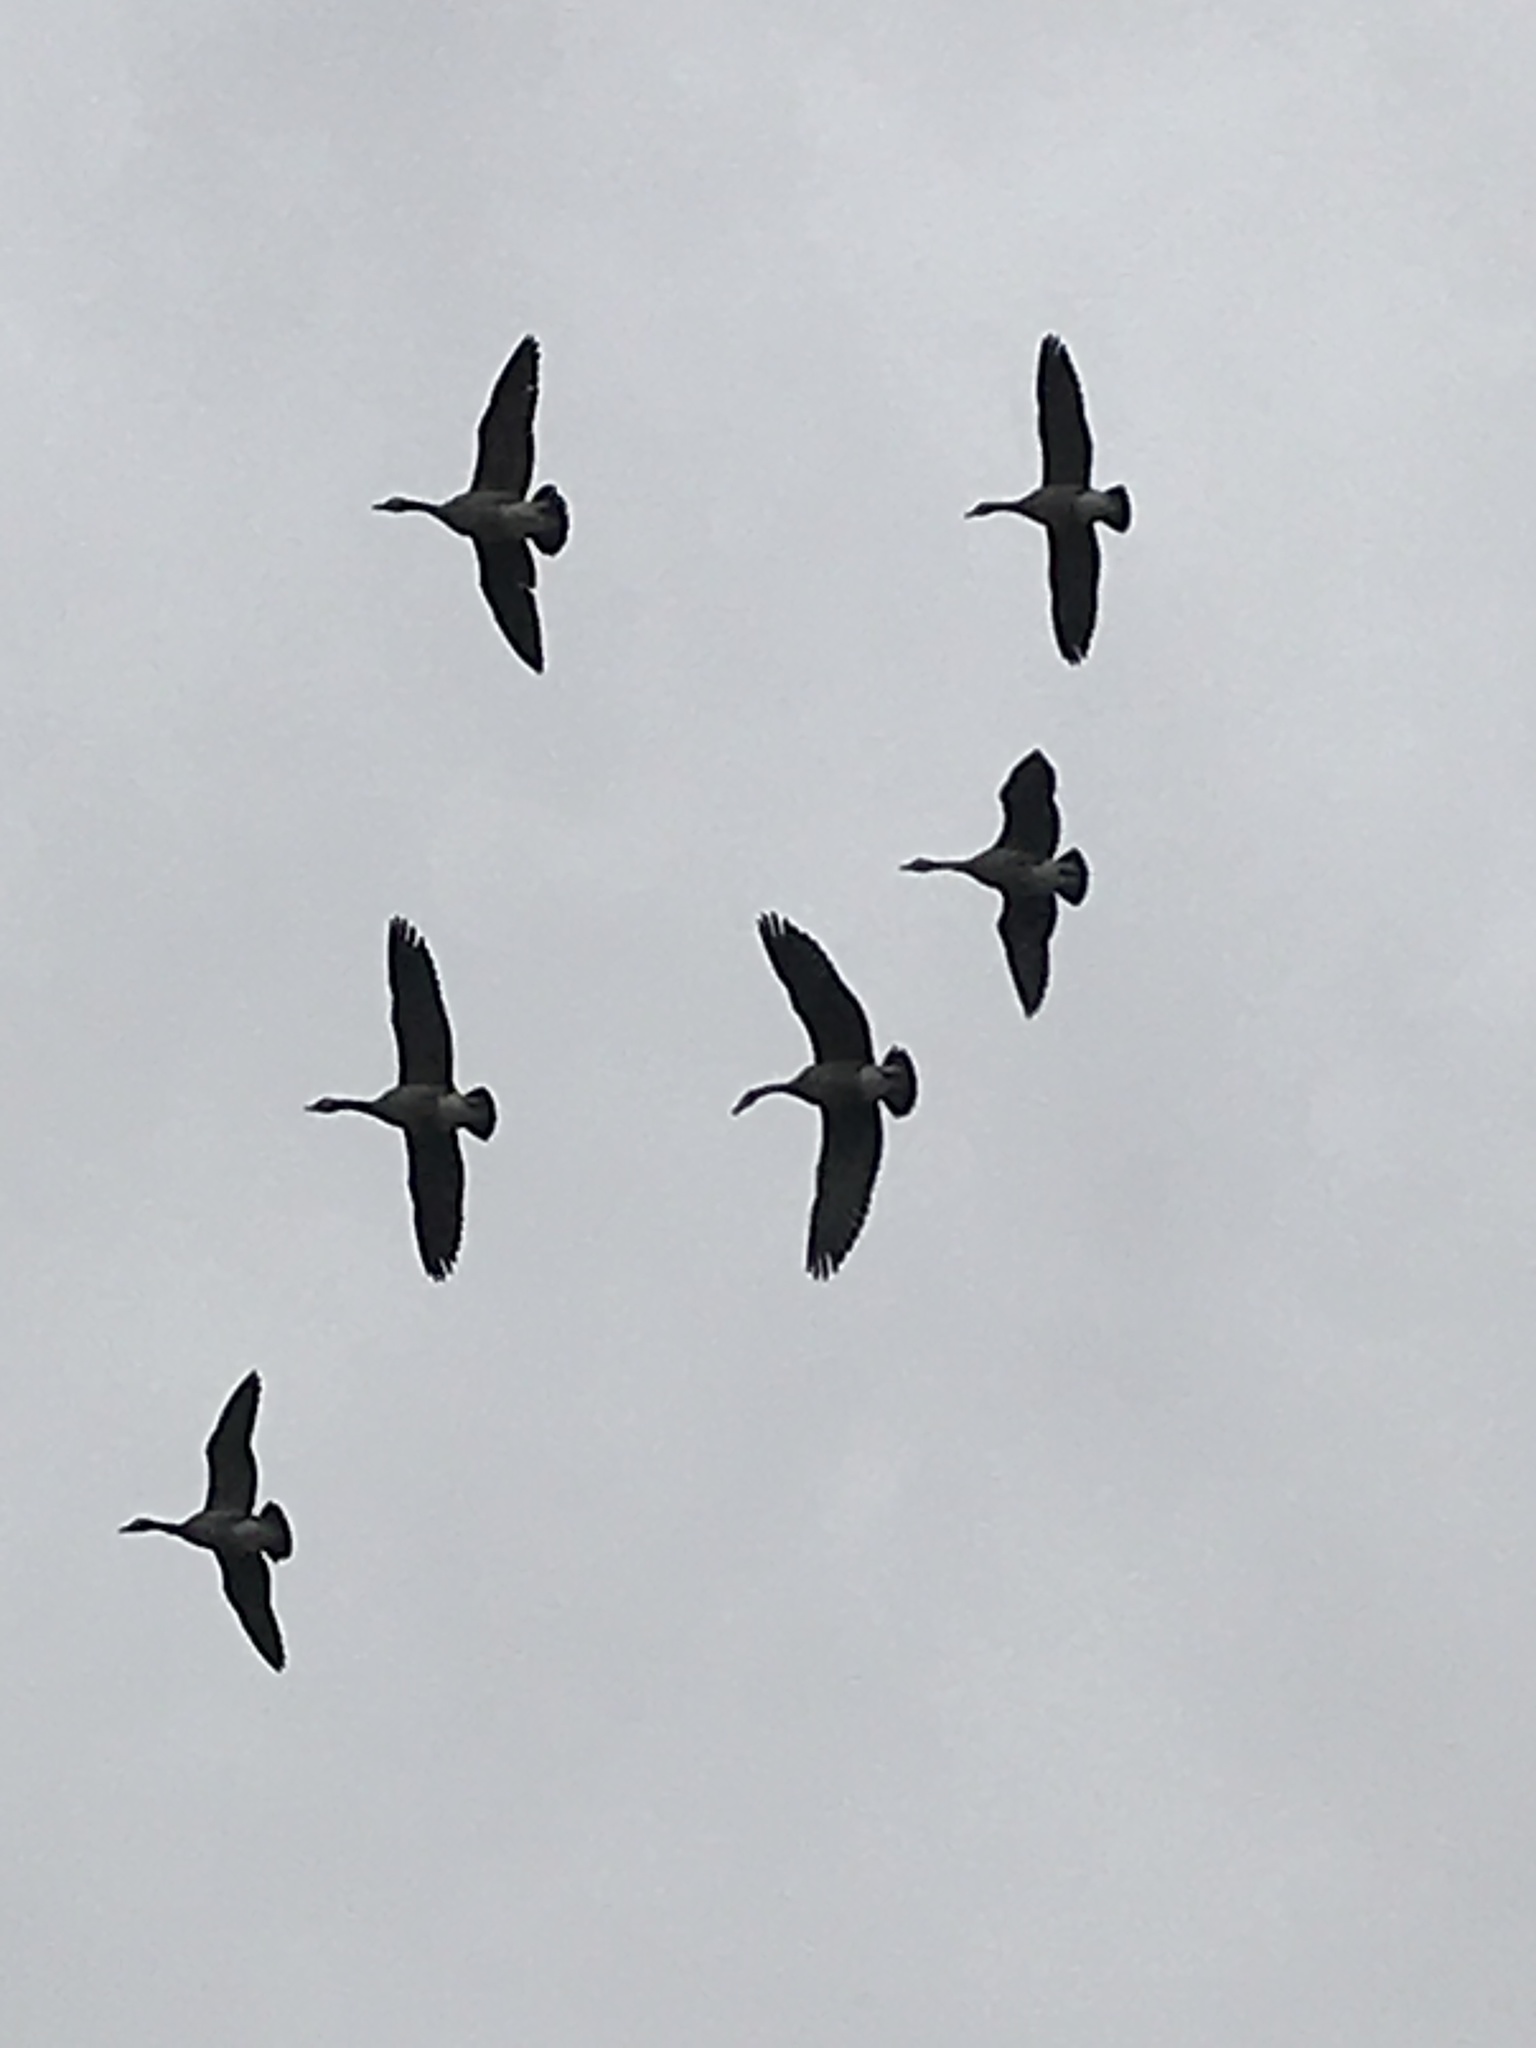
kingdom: Animalia
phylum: Chordata
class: Aves
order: Anseriformes
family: Anatidae
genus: Branta
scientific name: Branta canadensis
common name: Canada goose
